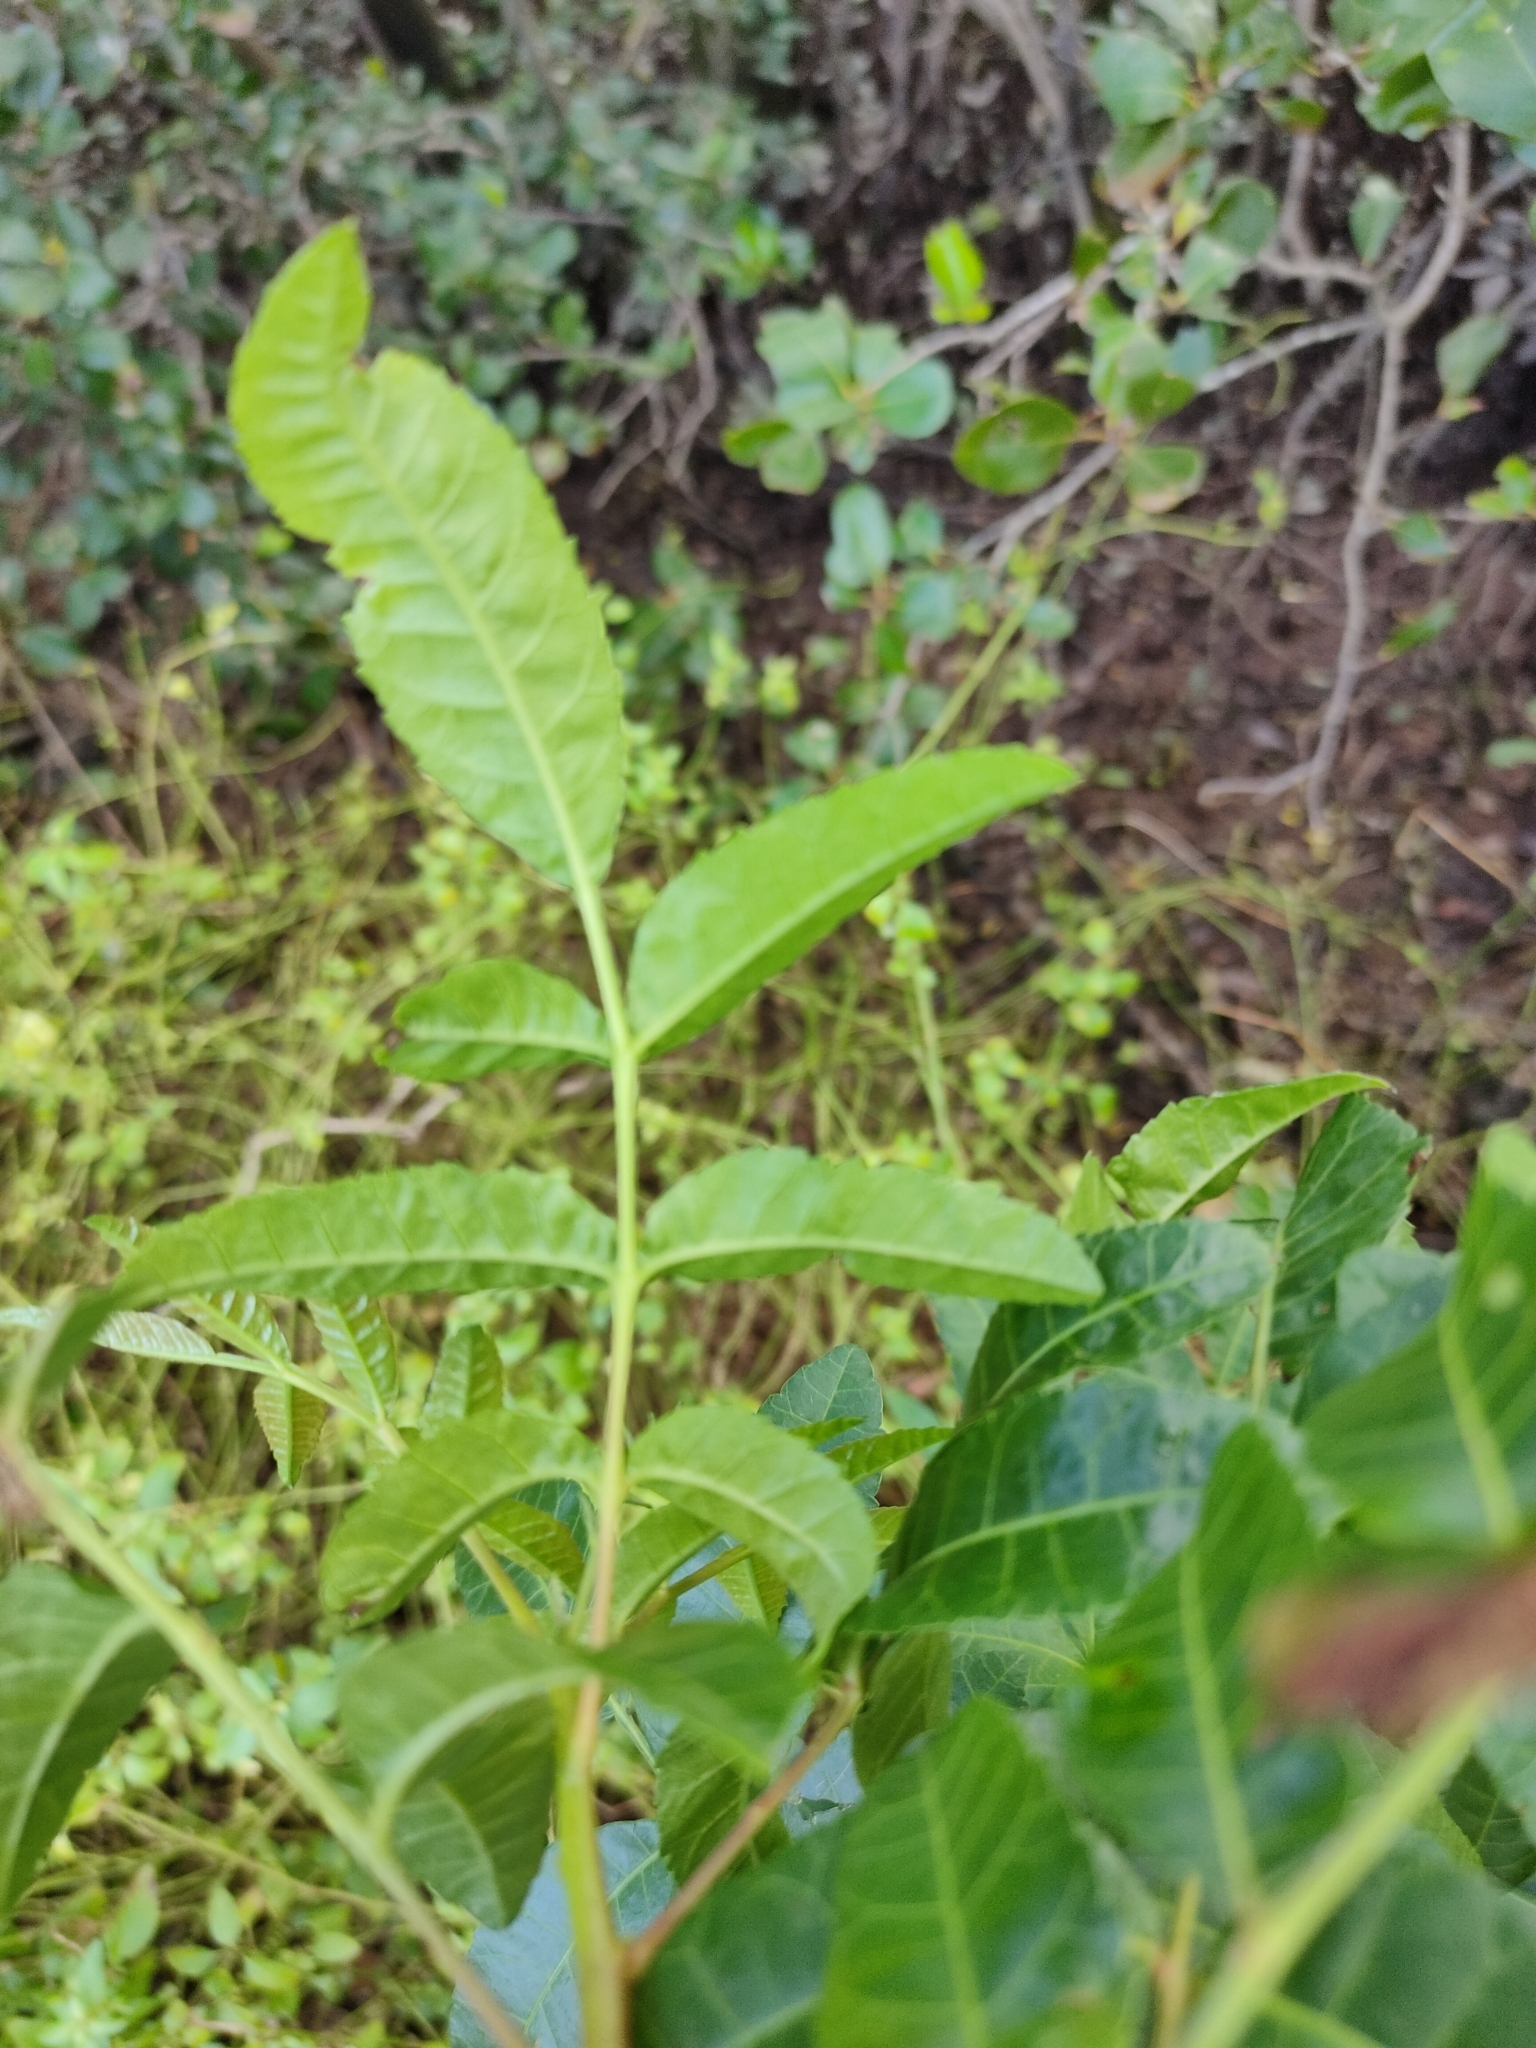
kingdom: Plantae
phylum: Tracheophyta
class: Magnoliopsida
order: Sapindales
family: Anacardiaceae
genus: Schinus
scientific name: Schinus terebinthifolia
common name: Brazilian peppertree
